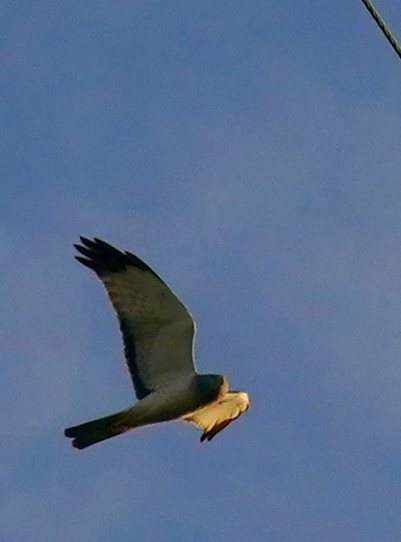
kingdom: Animalia
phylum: Chordata
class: Aves
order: Accipitriformes
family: Accipitridae
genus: Circus
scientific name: Circus cyaneus
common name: Hen harrier
